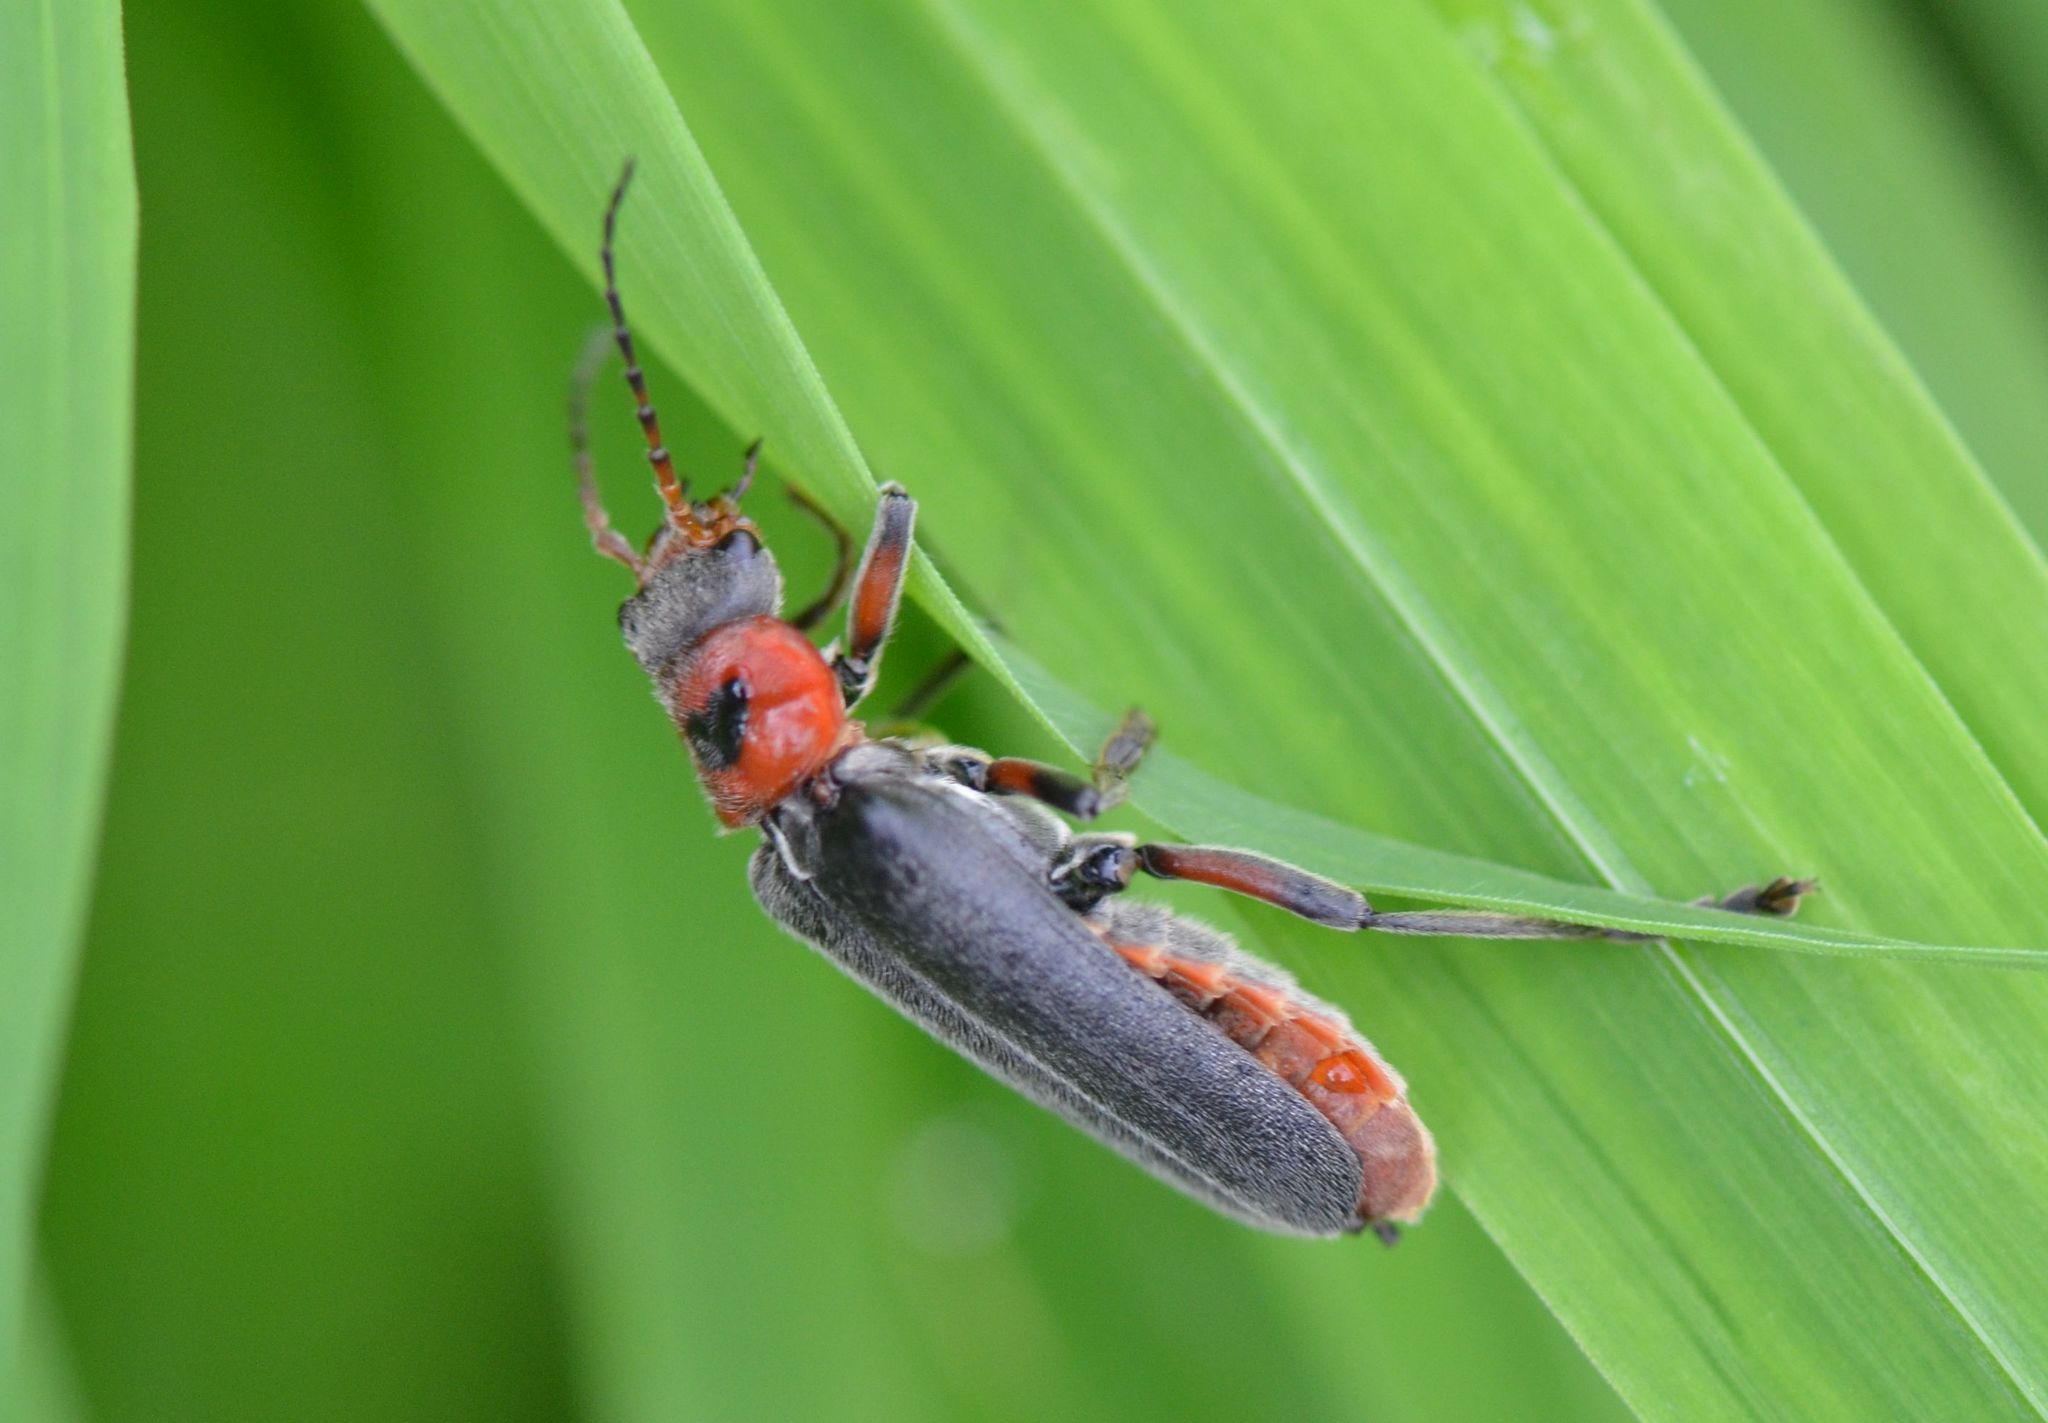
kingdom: Animalia
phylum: Arthropoda
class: Insecta
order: Coleoptera
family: Cantharidae
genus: Cantharis
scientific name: Cantharis rustica
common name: Soldier beetle
